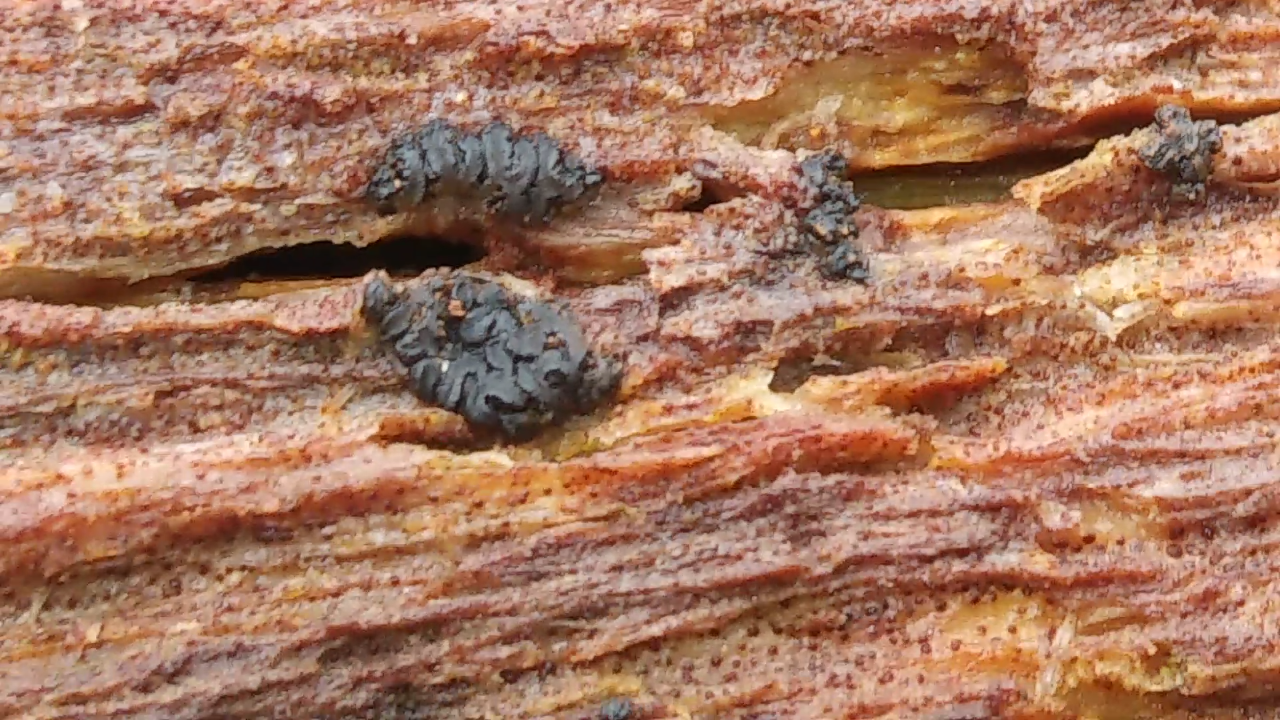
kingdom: Fungi
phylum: Ascomycota
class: Leotiomycetes
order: Helotiales
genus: Angelina
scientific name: Angelina rufescens
